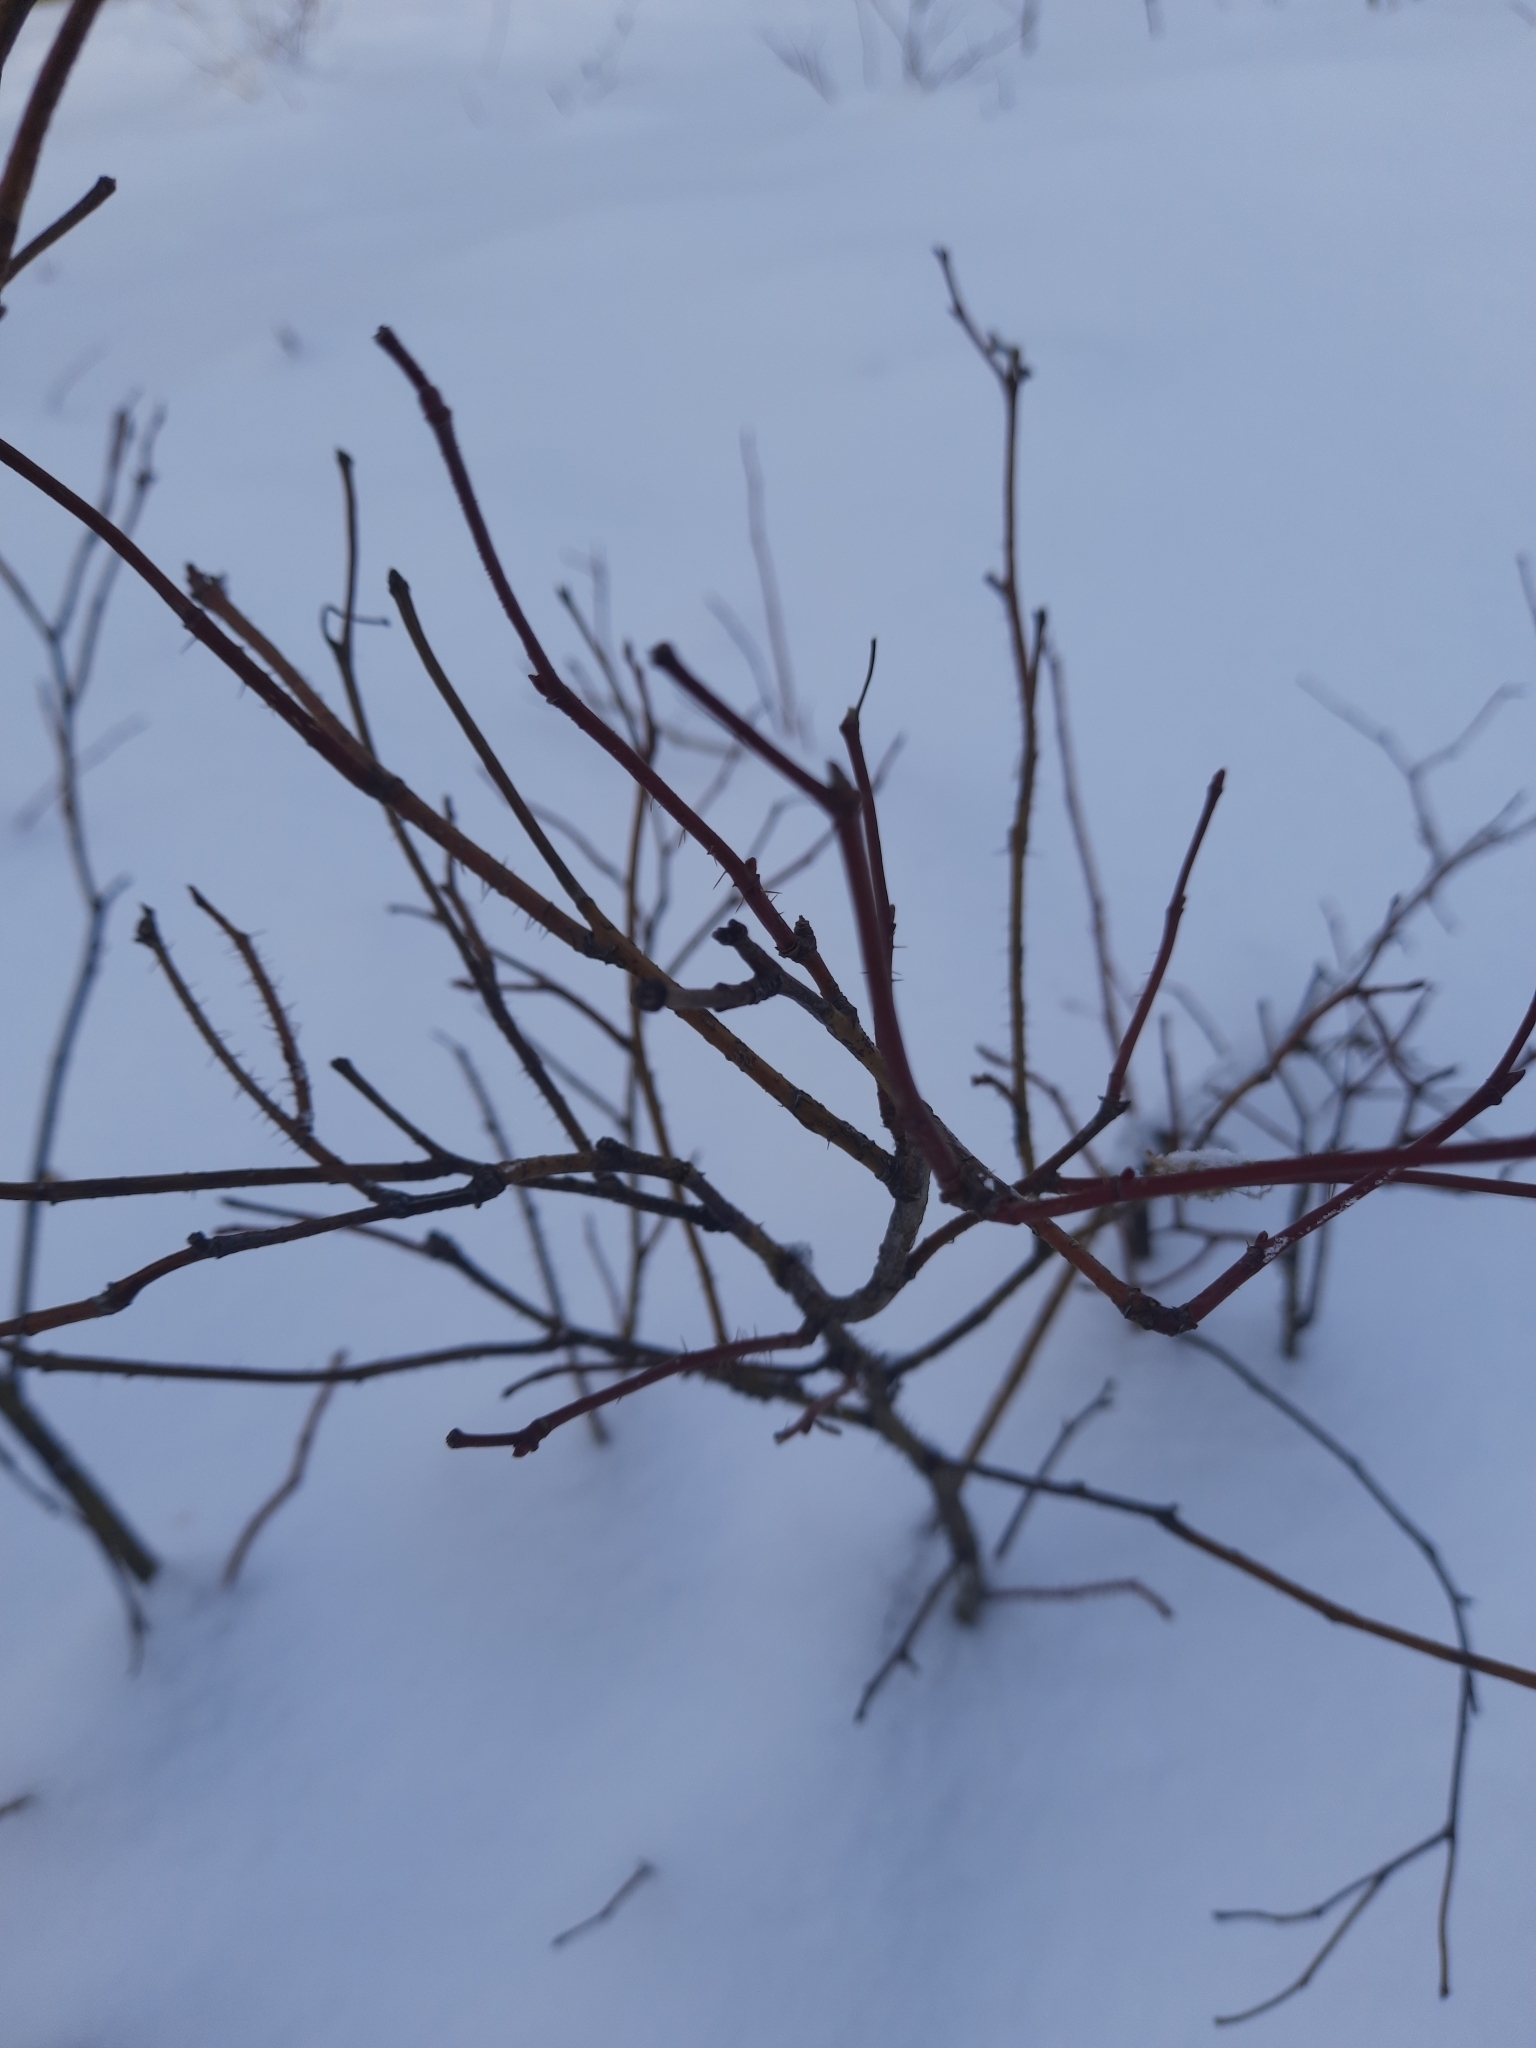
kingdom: Plantae
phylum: Tracheophyta
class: Magnoliopsida
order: Rosales
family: Rosaceae
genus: Rosa
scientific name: Rosa acicularis
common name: Prickly rose
